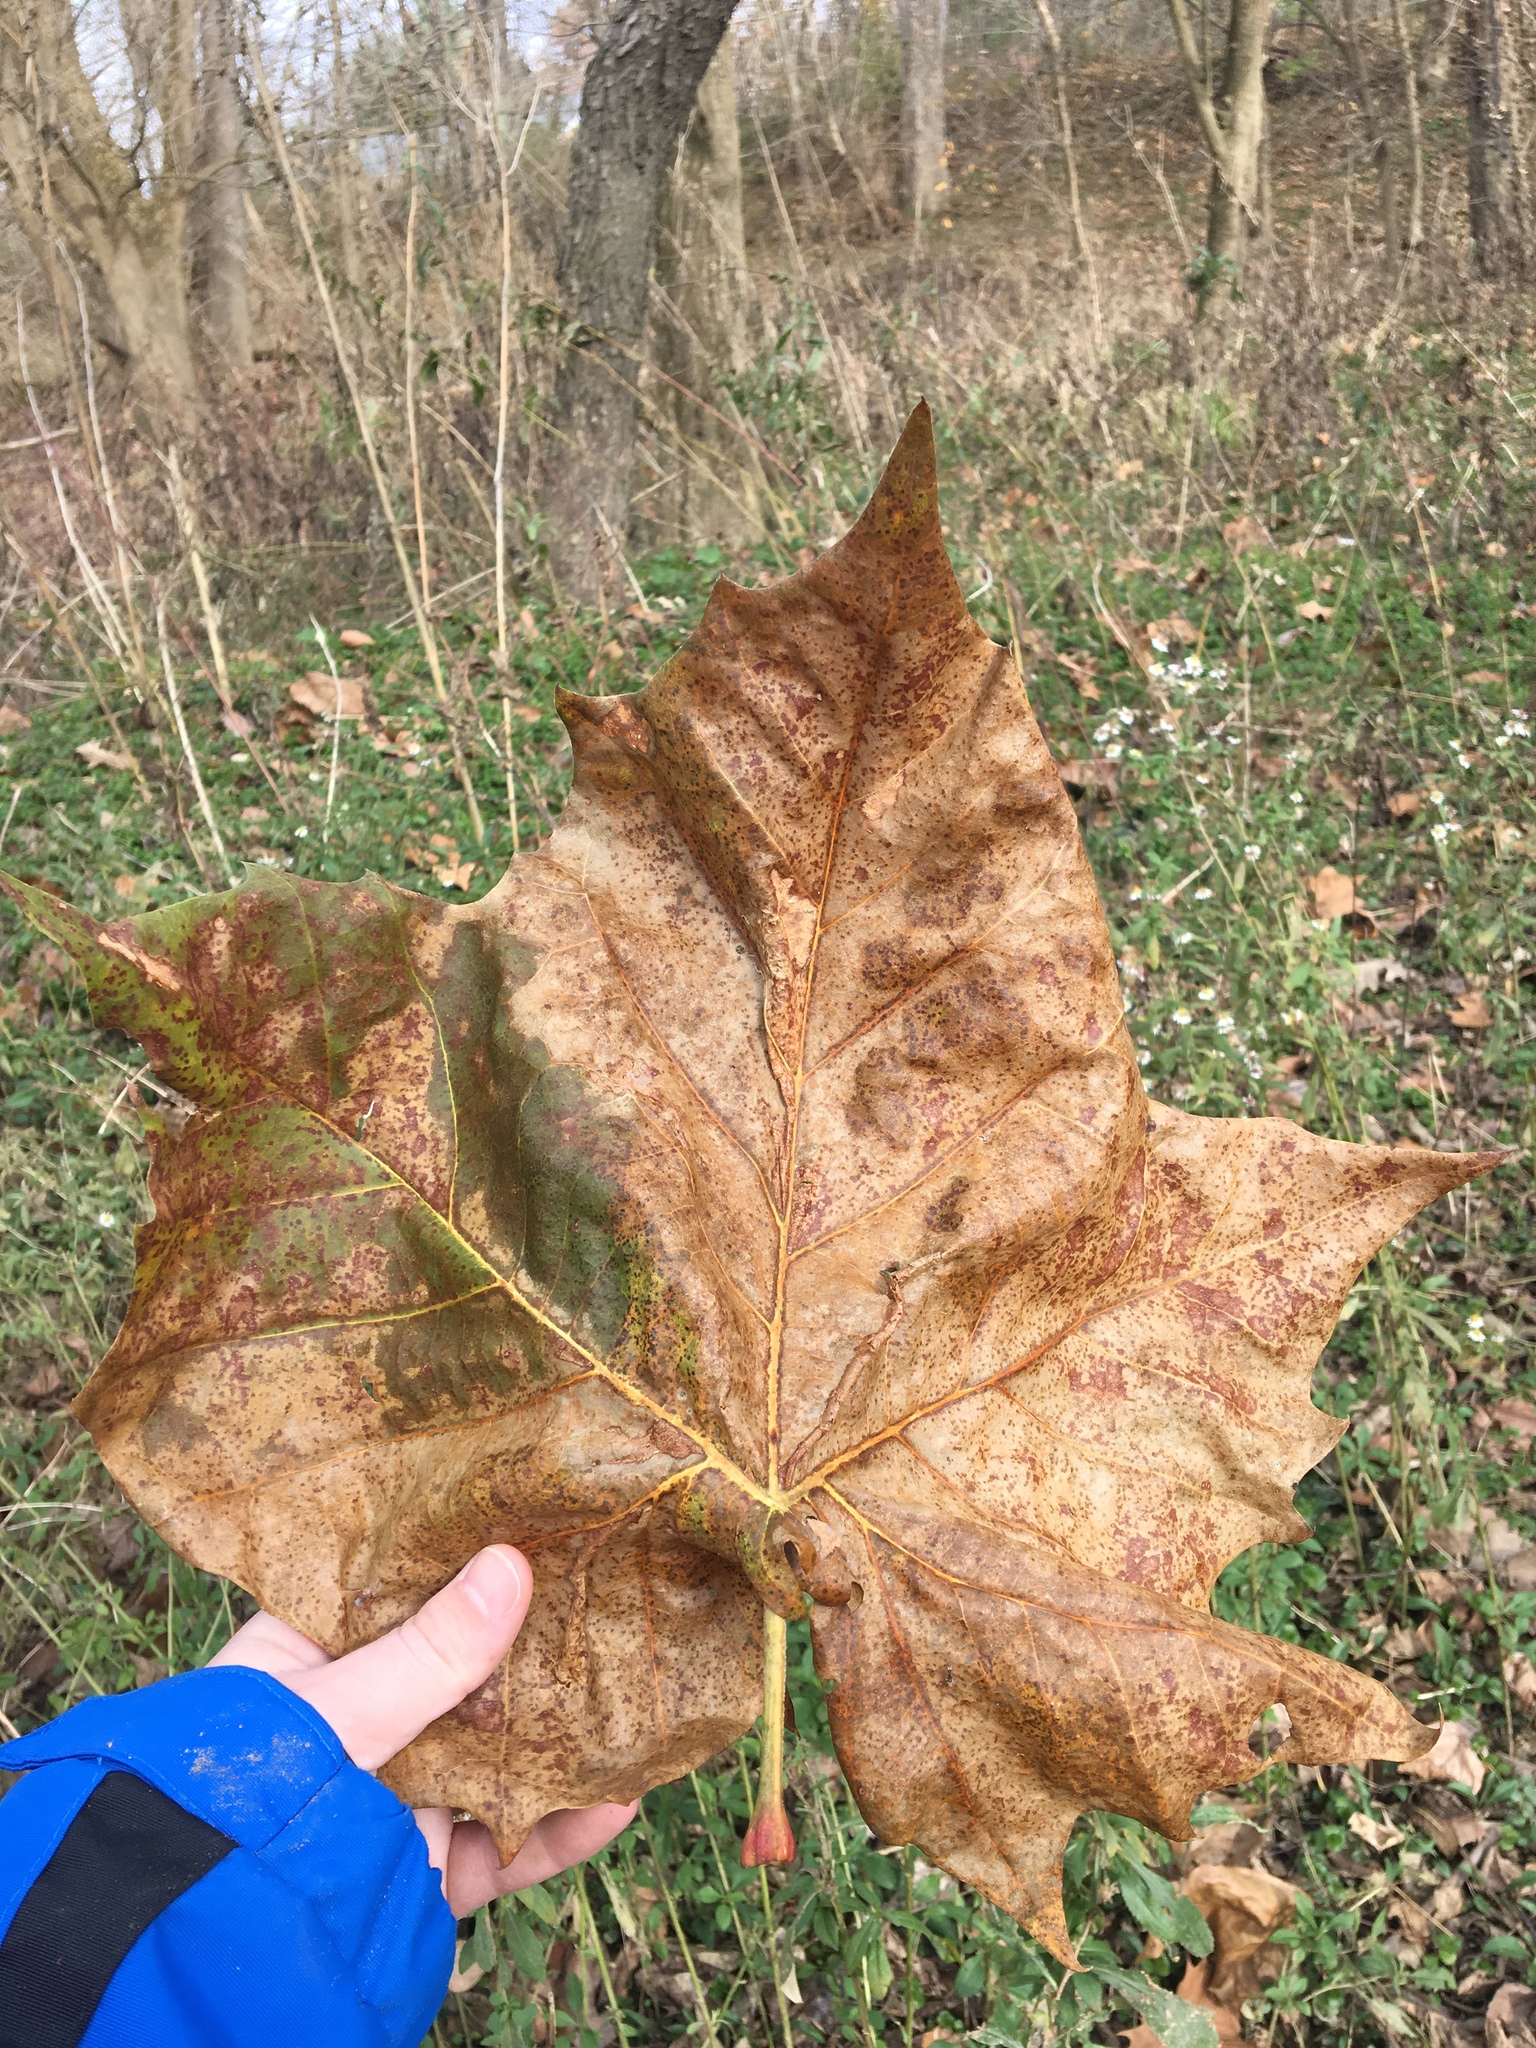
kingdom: Plantae
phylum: Tracheophyta
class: Magnoliopsida
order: Proteales
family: Platanaceae
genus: Platanus
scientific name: Platanus occidentalis
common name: American sycamore
